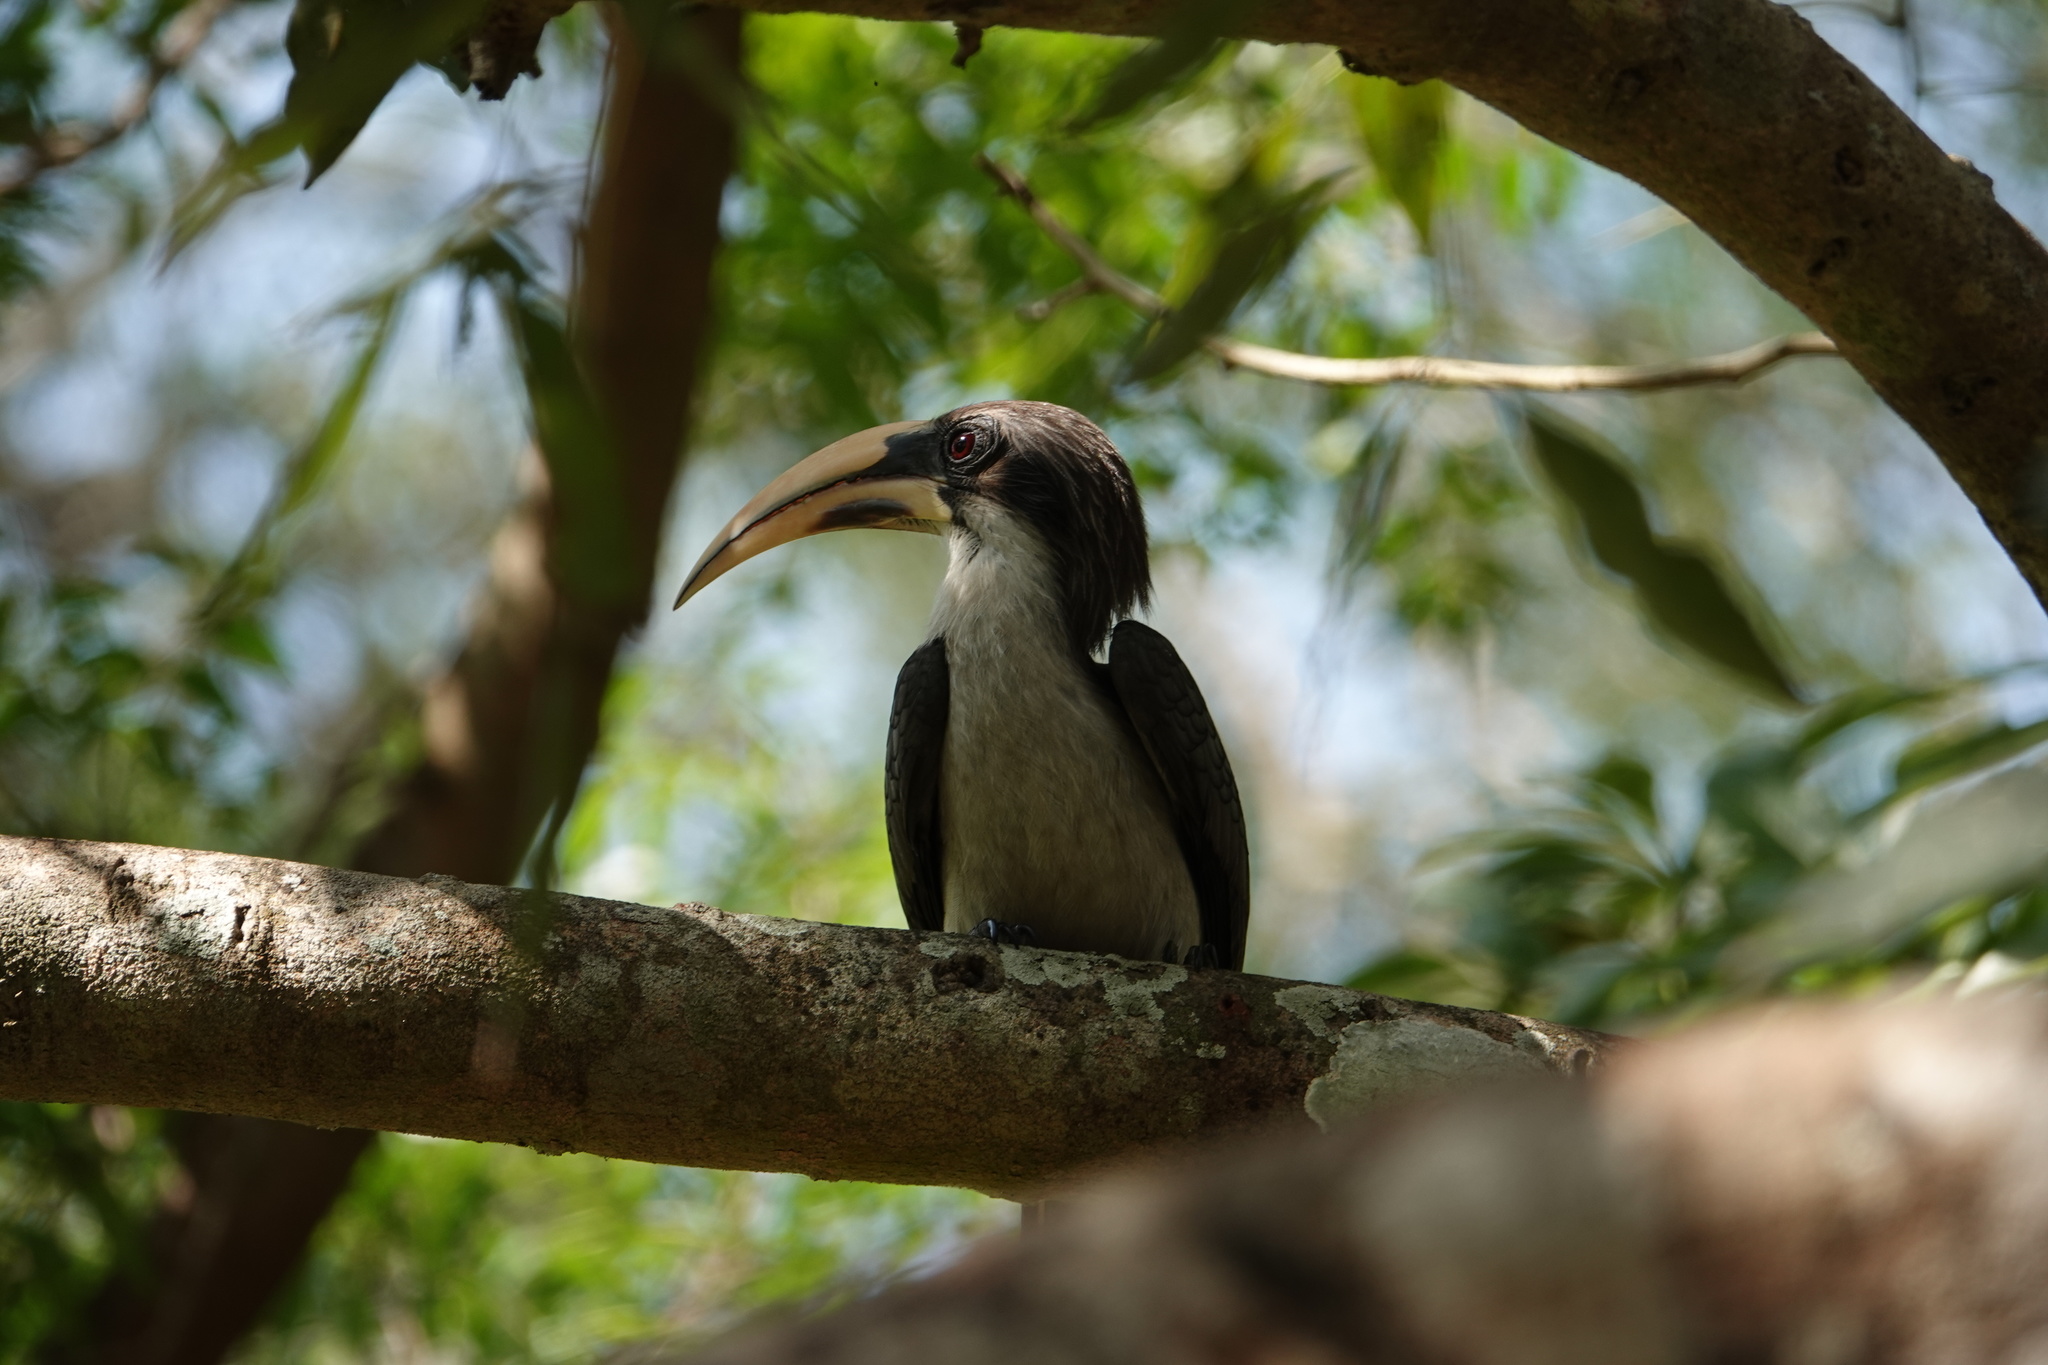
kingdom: Animalia
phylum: Chordata
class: Aves
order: Bucerotiformes
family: Bucerotidae
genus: Ocyceros
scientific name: Ocyceros gingalensis
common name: Sri lanka grey hornbill
